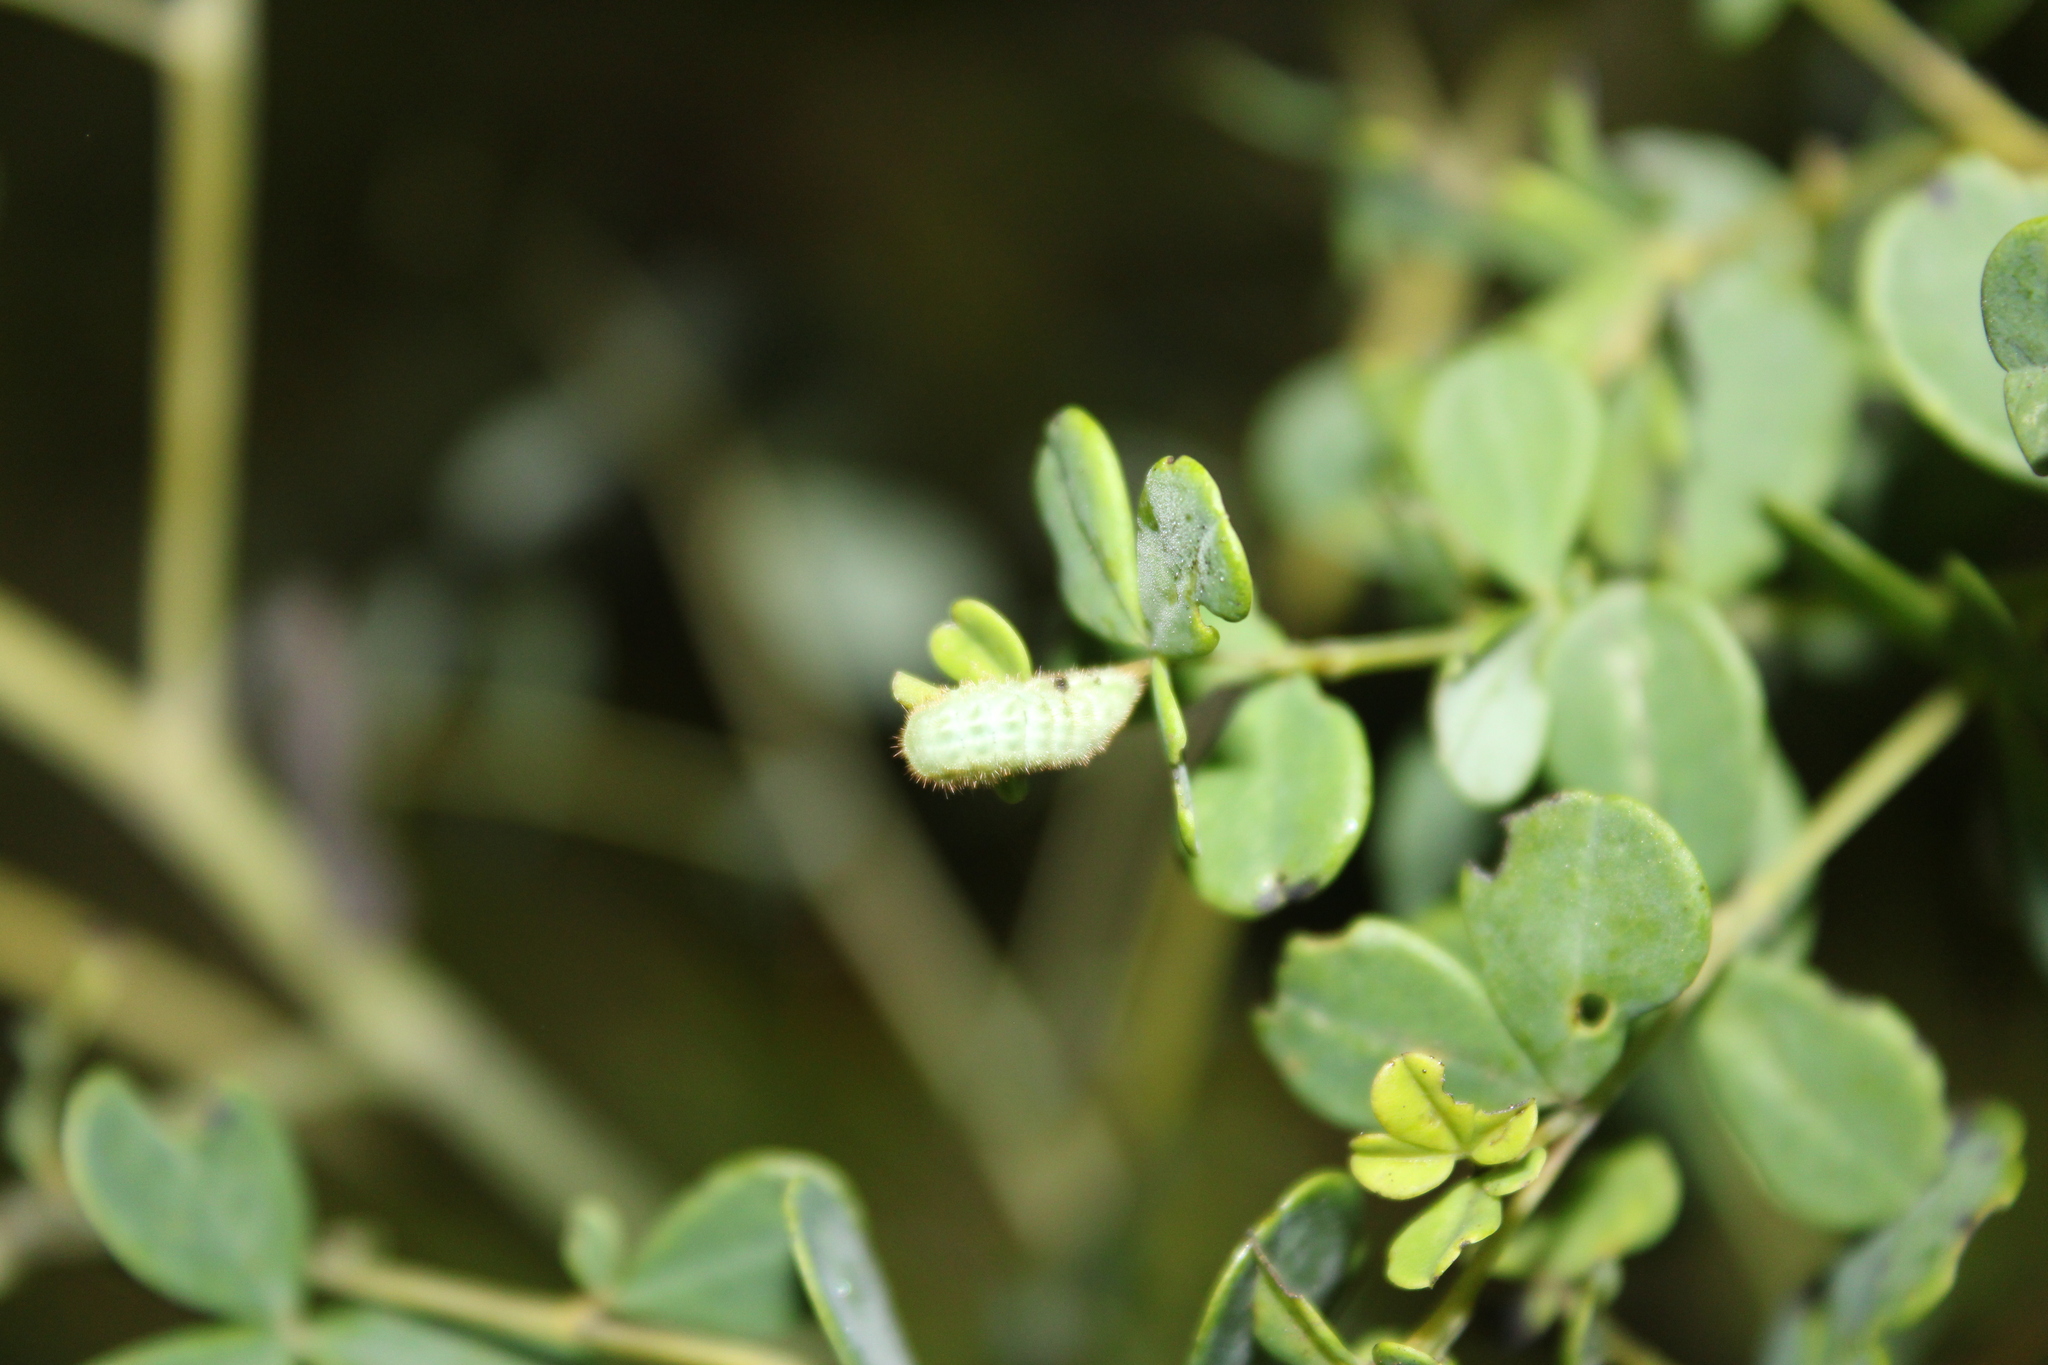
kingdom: Animalia
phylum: Arthropoda
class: Insecta
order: Lepidoptera
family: Lycaenidae
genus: Thecla
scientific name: Thecla irus
